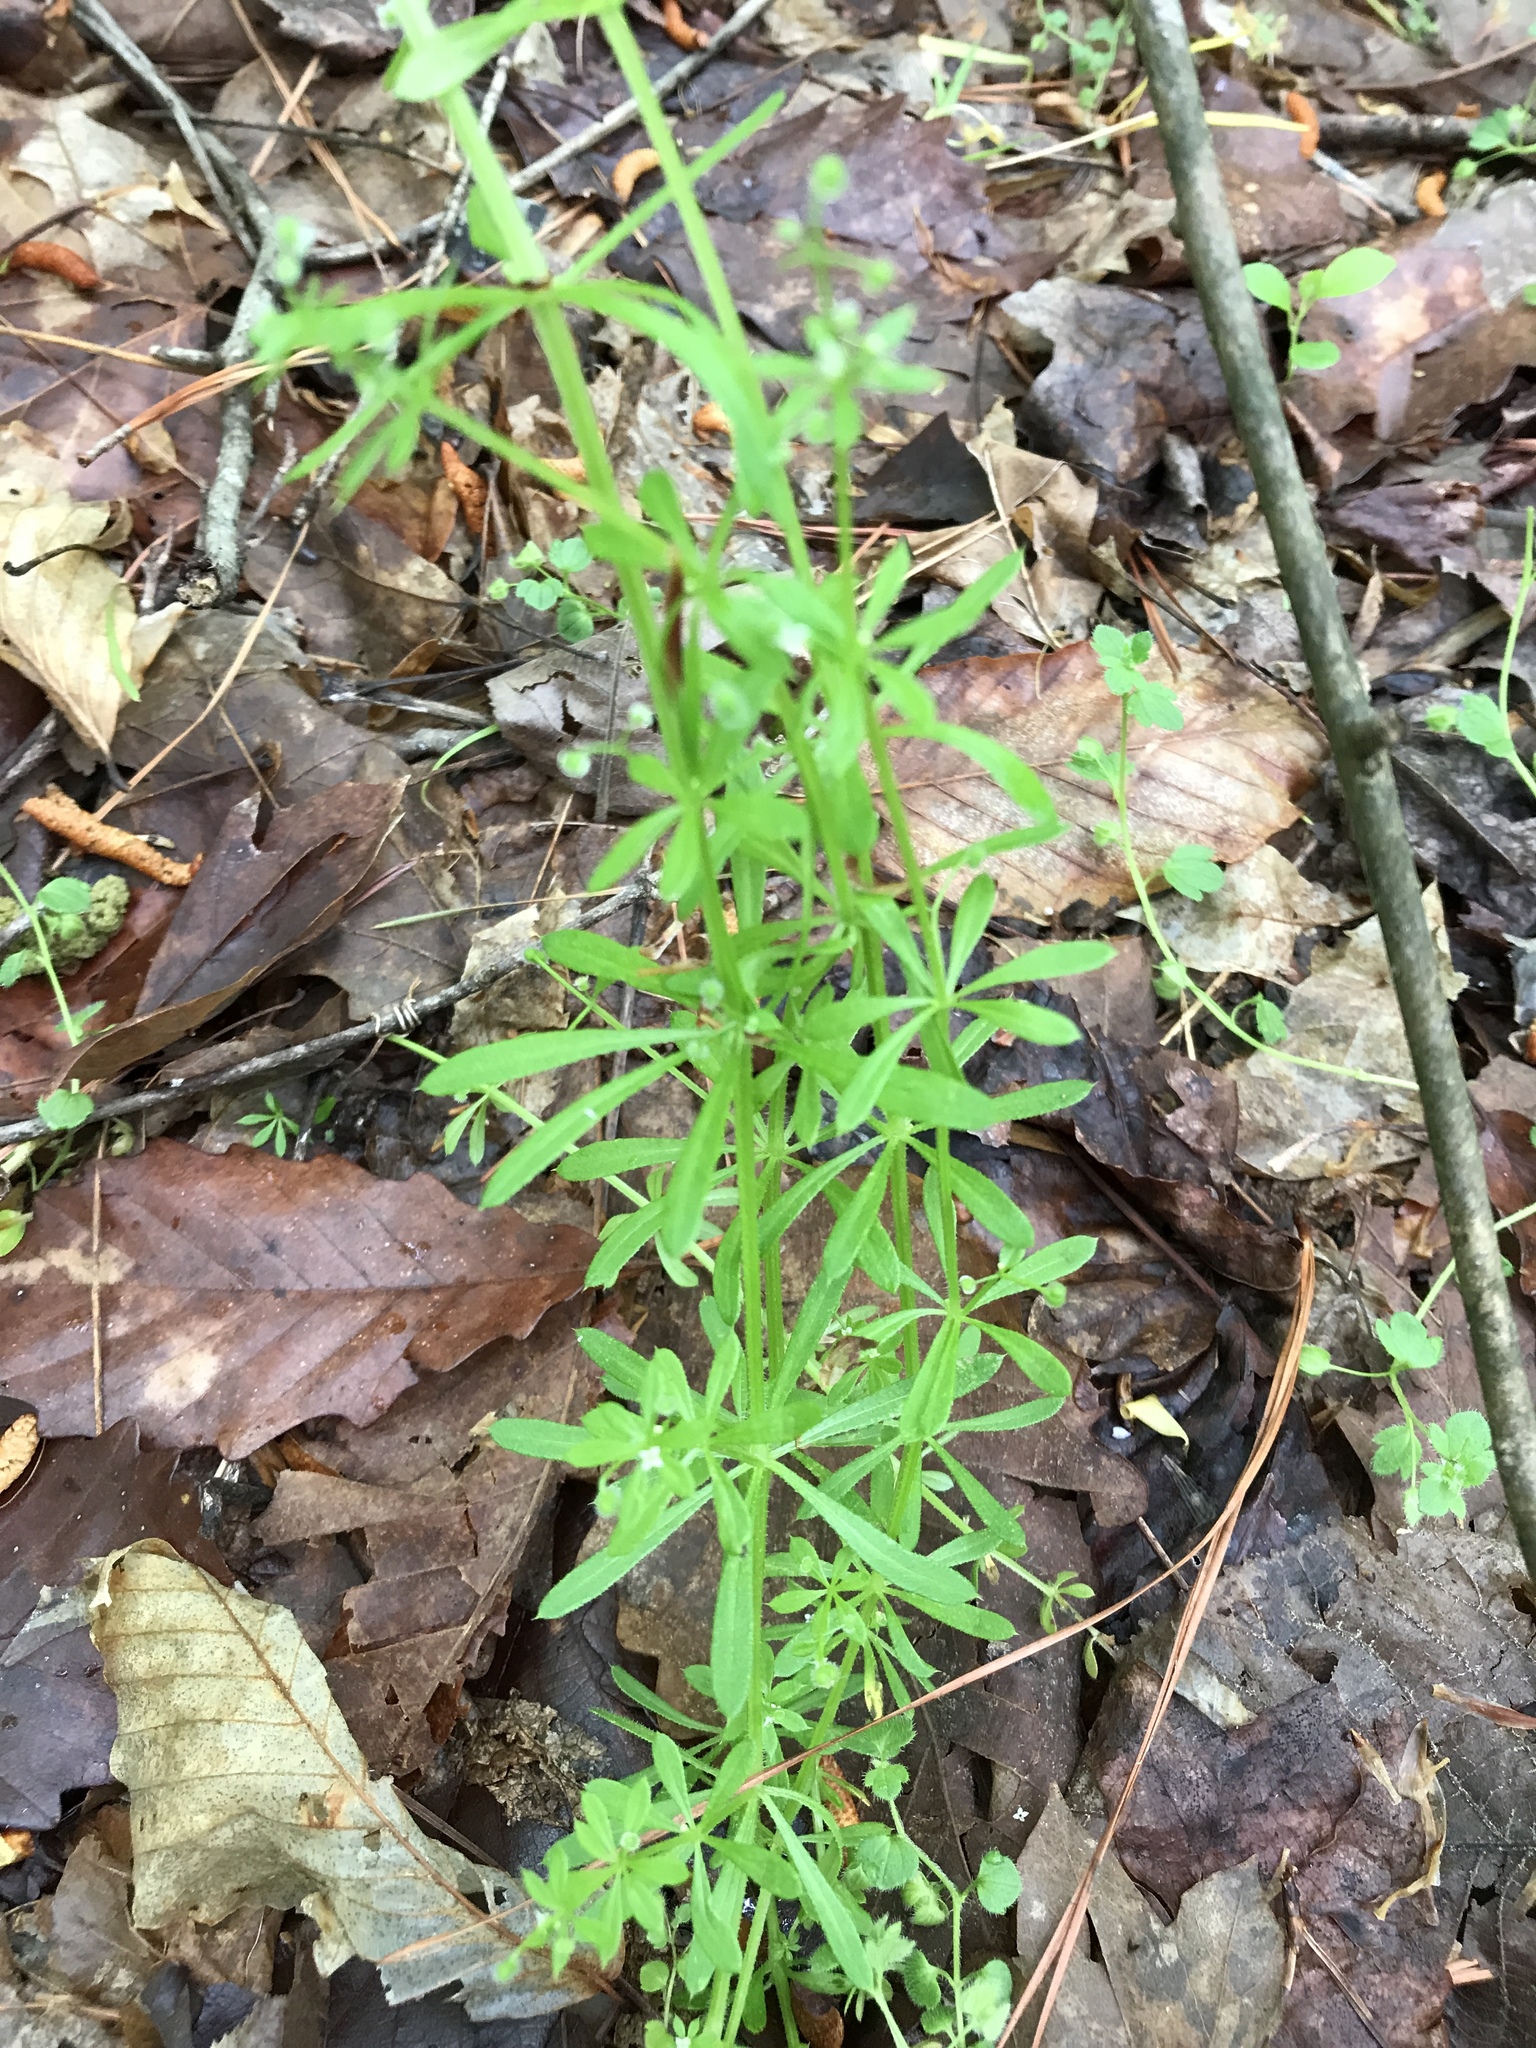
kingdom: Plantae
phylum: Tracheophyta
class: Magnoliopsida
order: Gentianales
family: Rubiaceae
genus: Galium
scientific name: Galium aparine
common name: Cleavers
